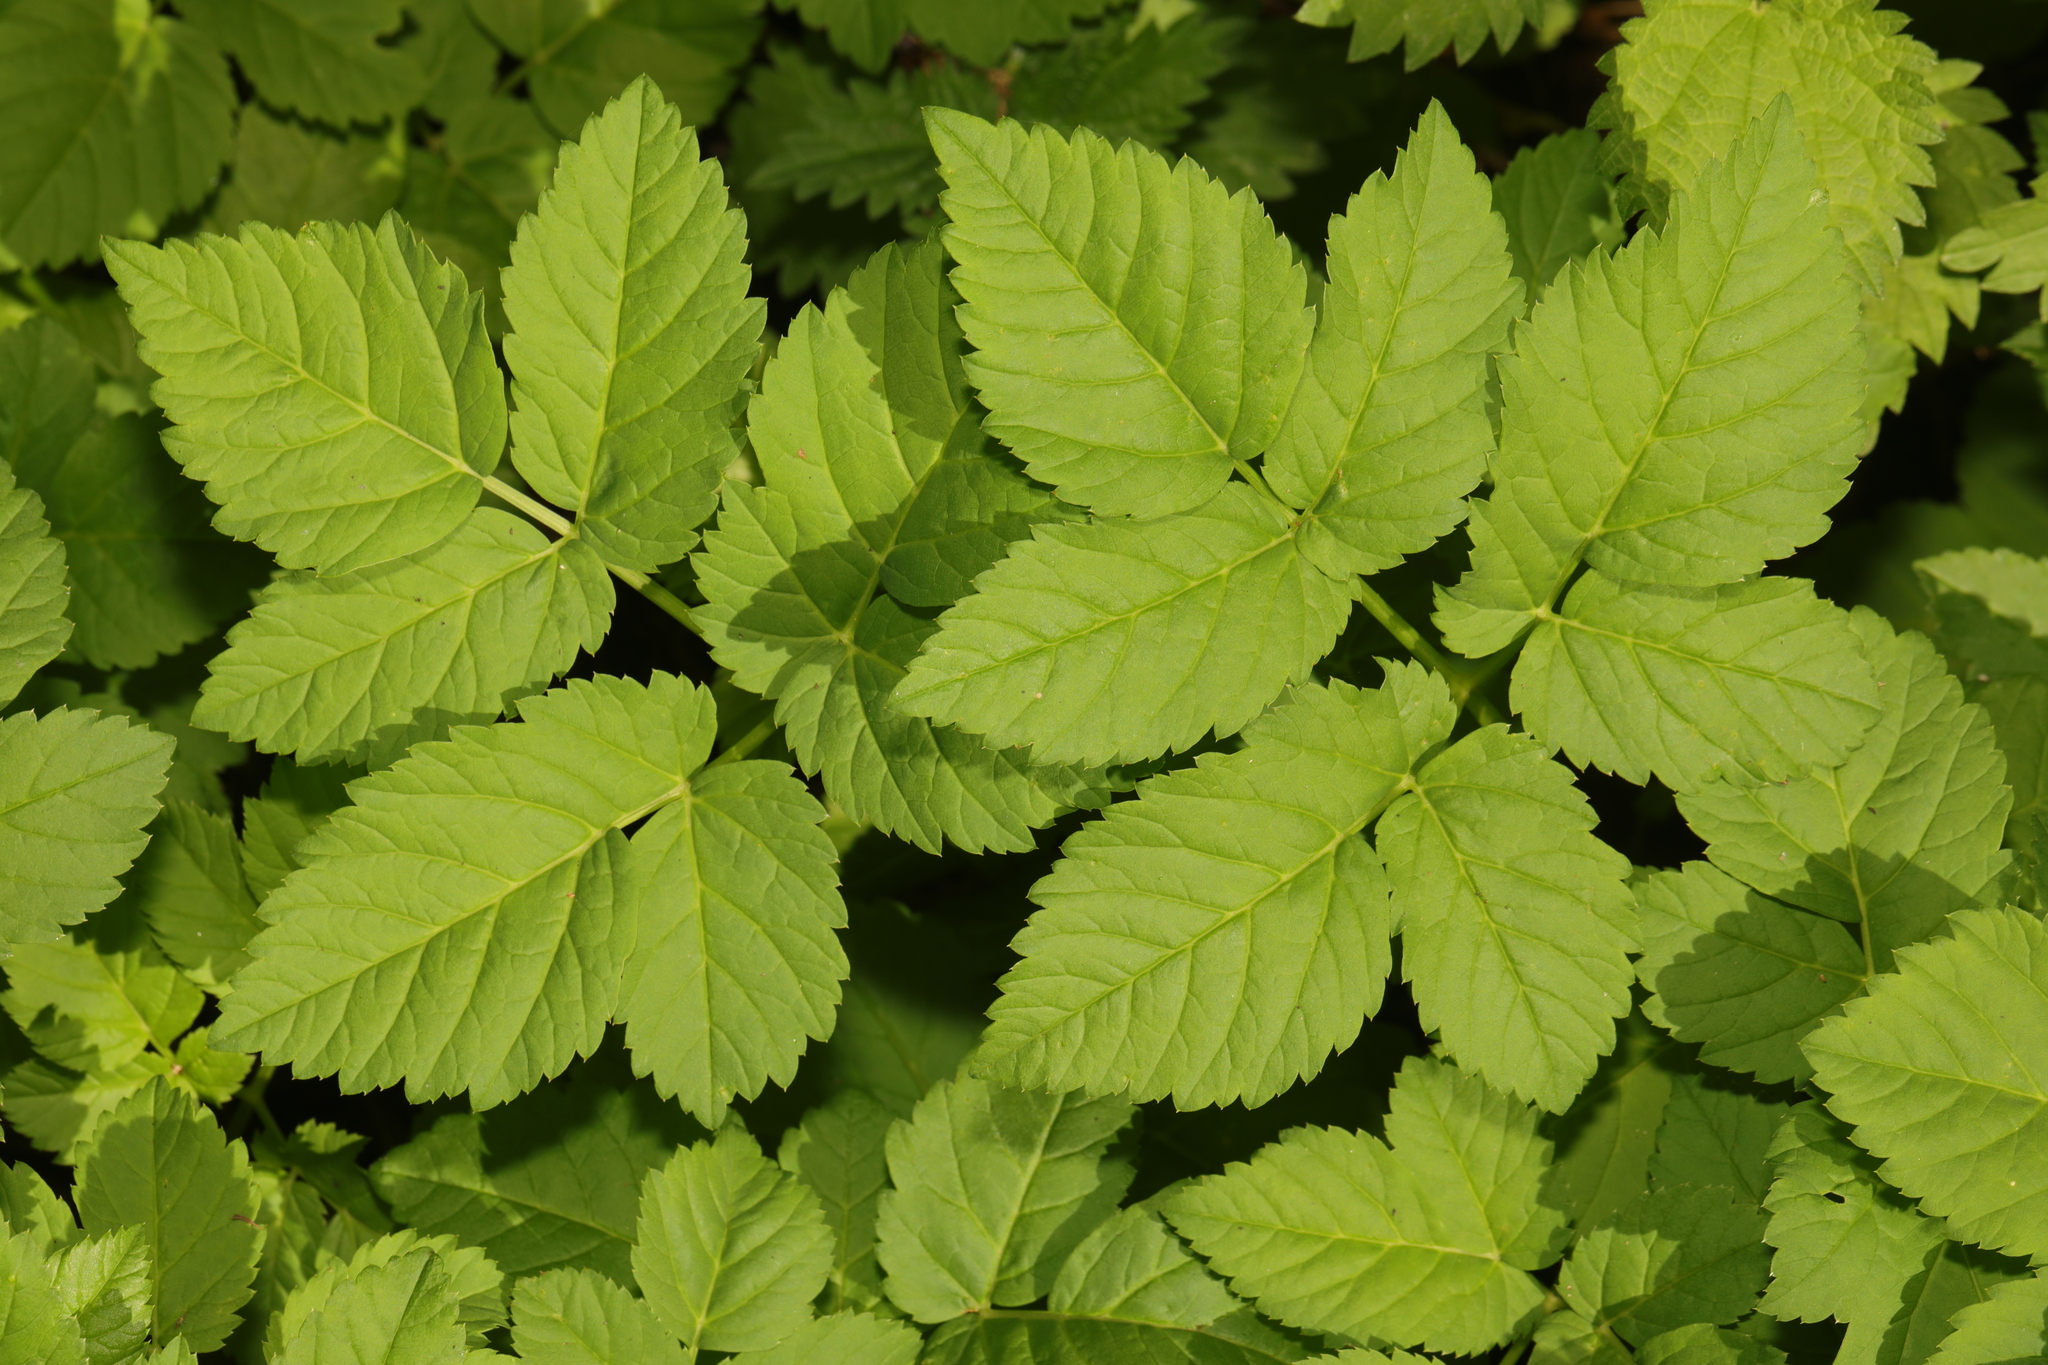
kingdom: Plantae
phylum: Tracheophyta
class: Magnoliopsida
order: Apiales
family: Apiaceae
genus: Aegopodium
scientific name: Aegopodium podagraria
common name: Ground-elder
